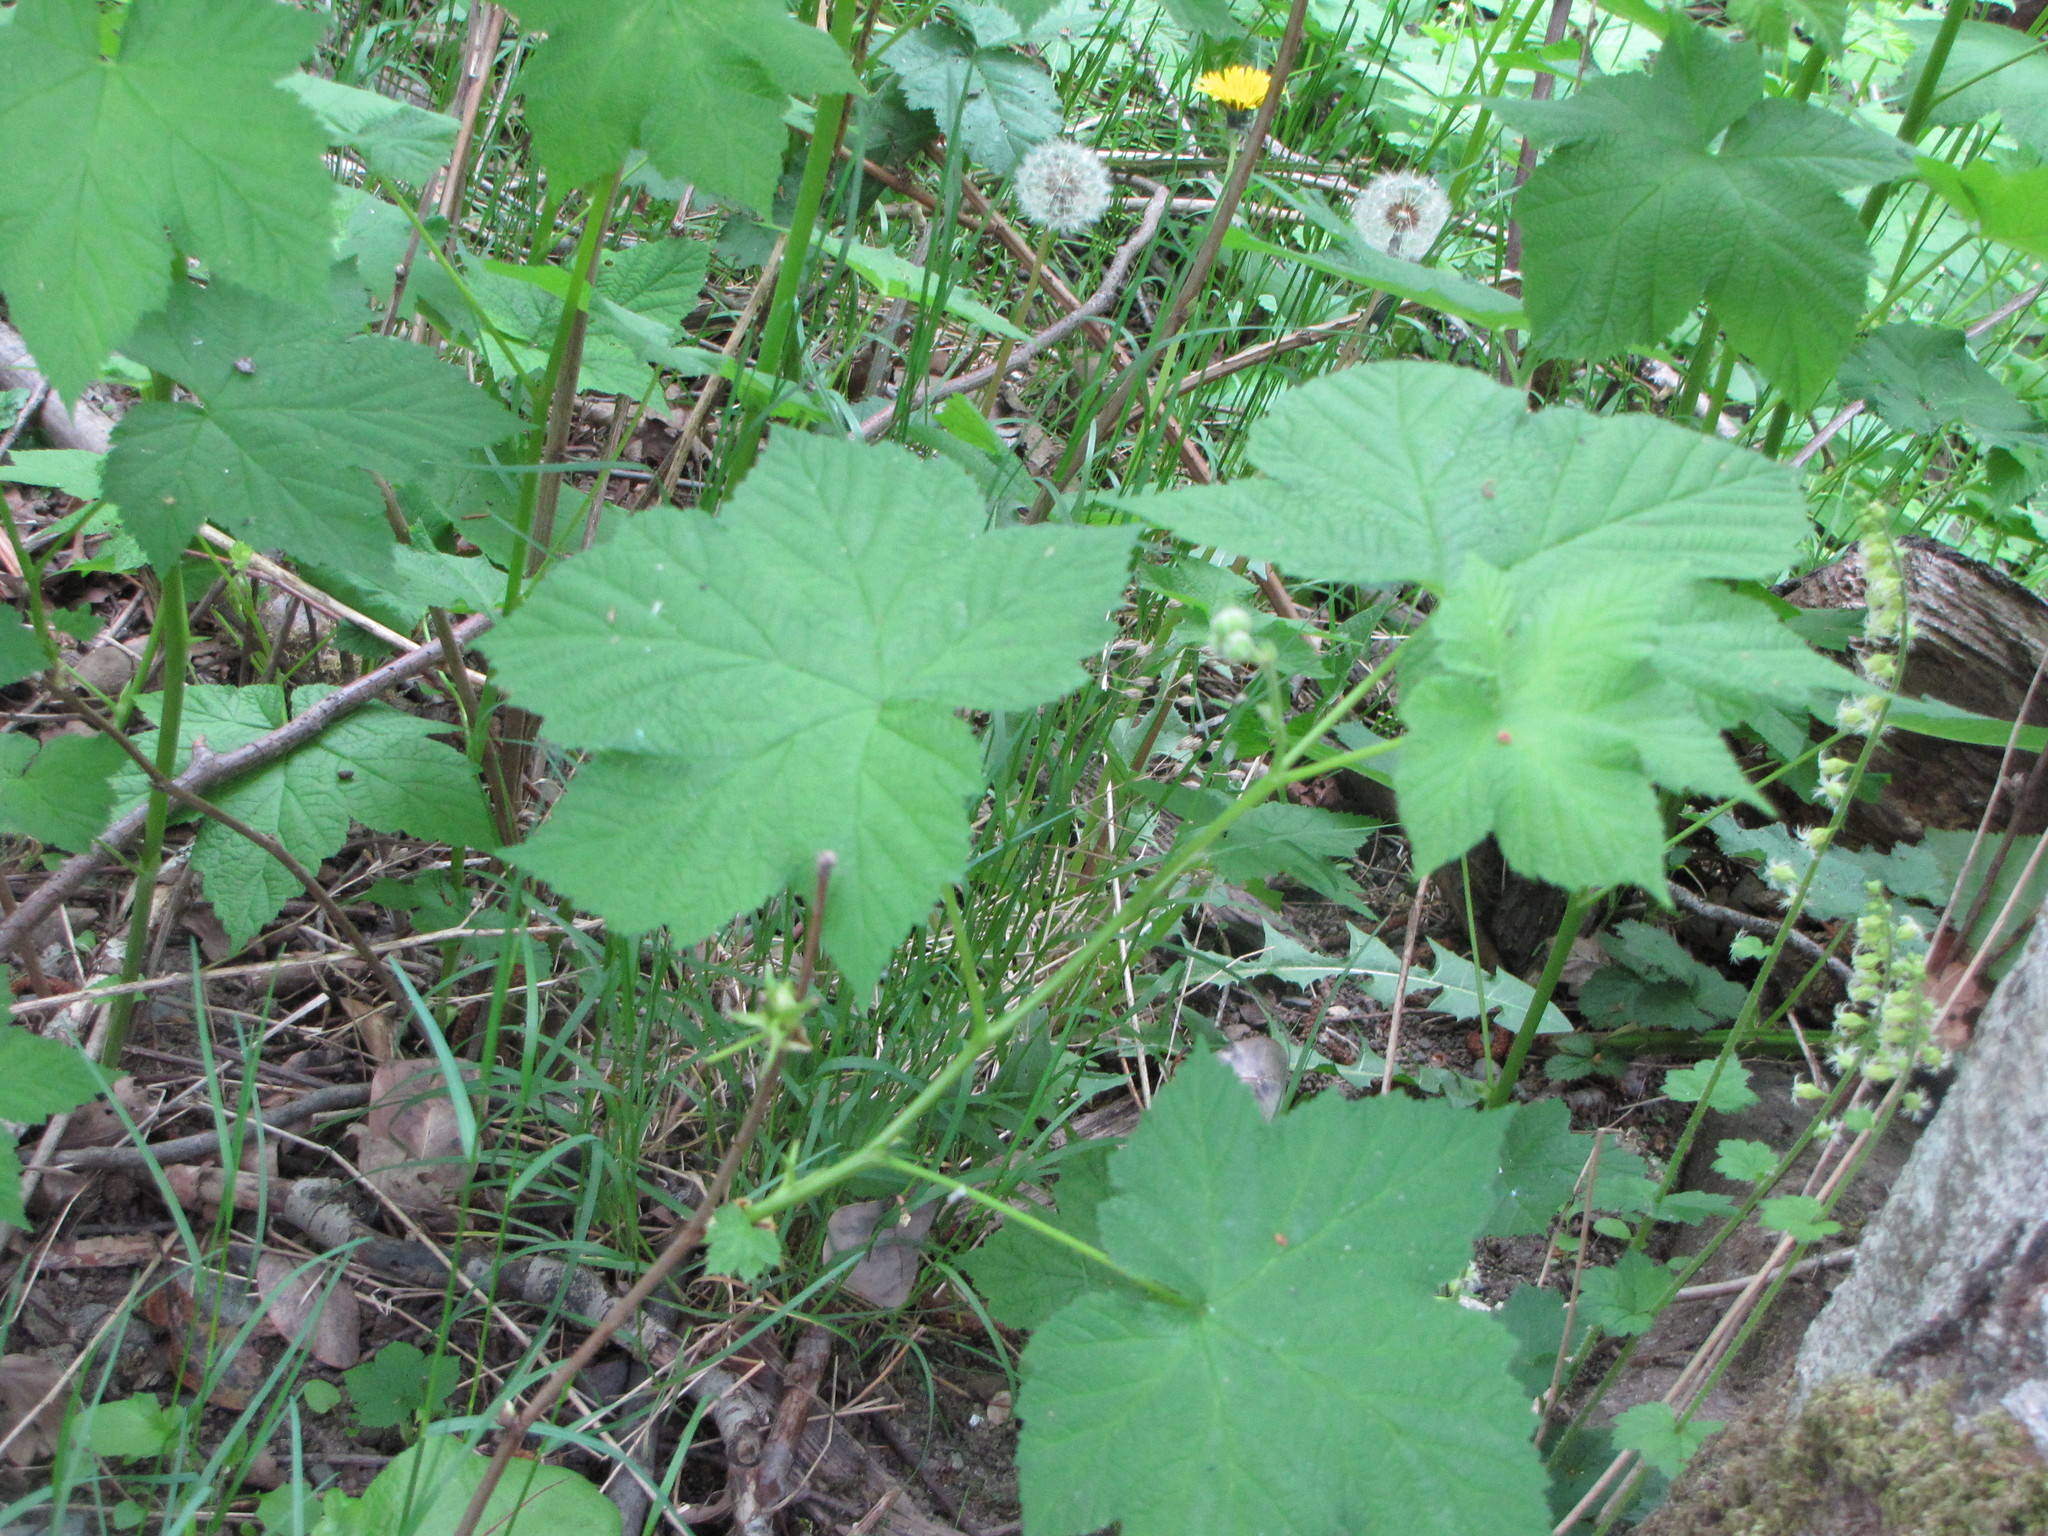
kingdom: Plantae
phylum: Tracheophyta
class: Magnoliopsida
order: Rosales
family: Rosaceae
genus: Rubus
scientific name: Rubus parviflorus
